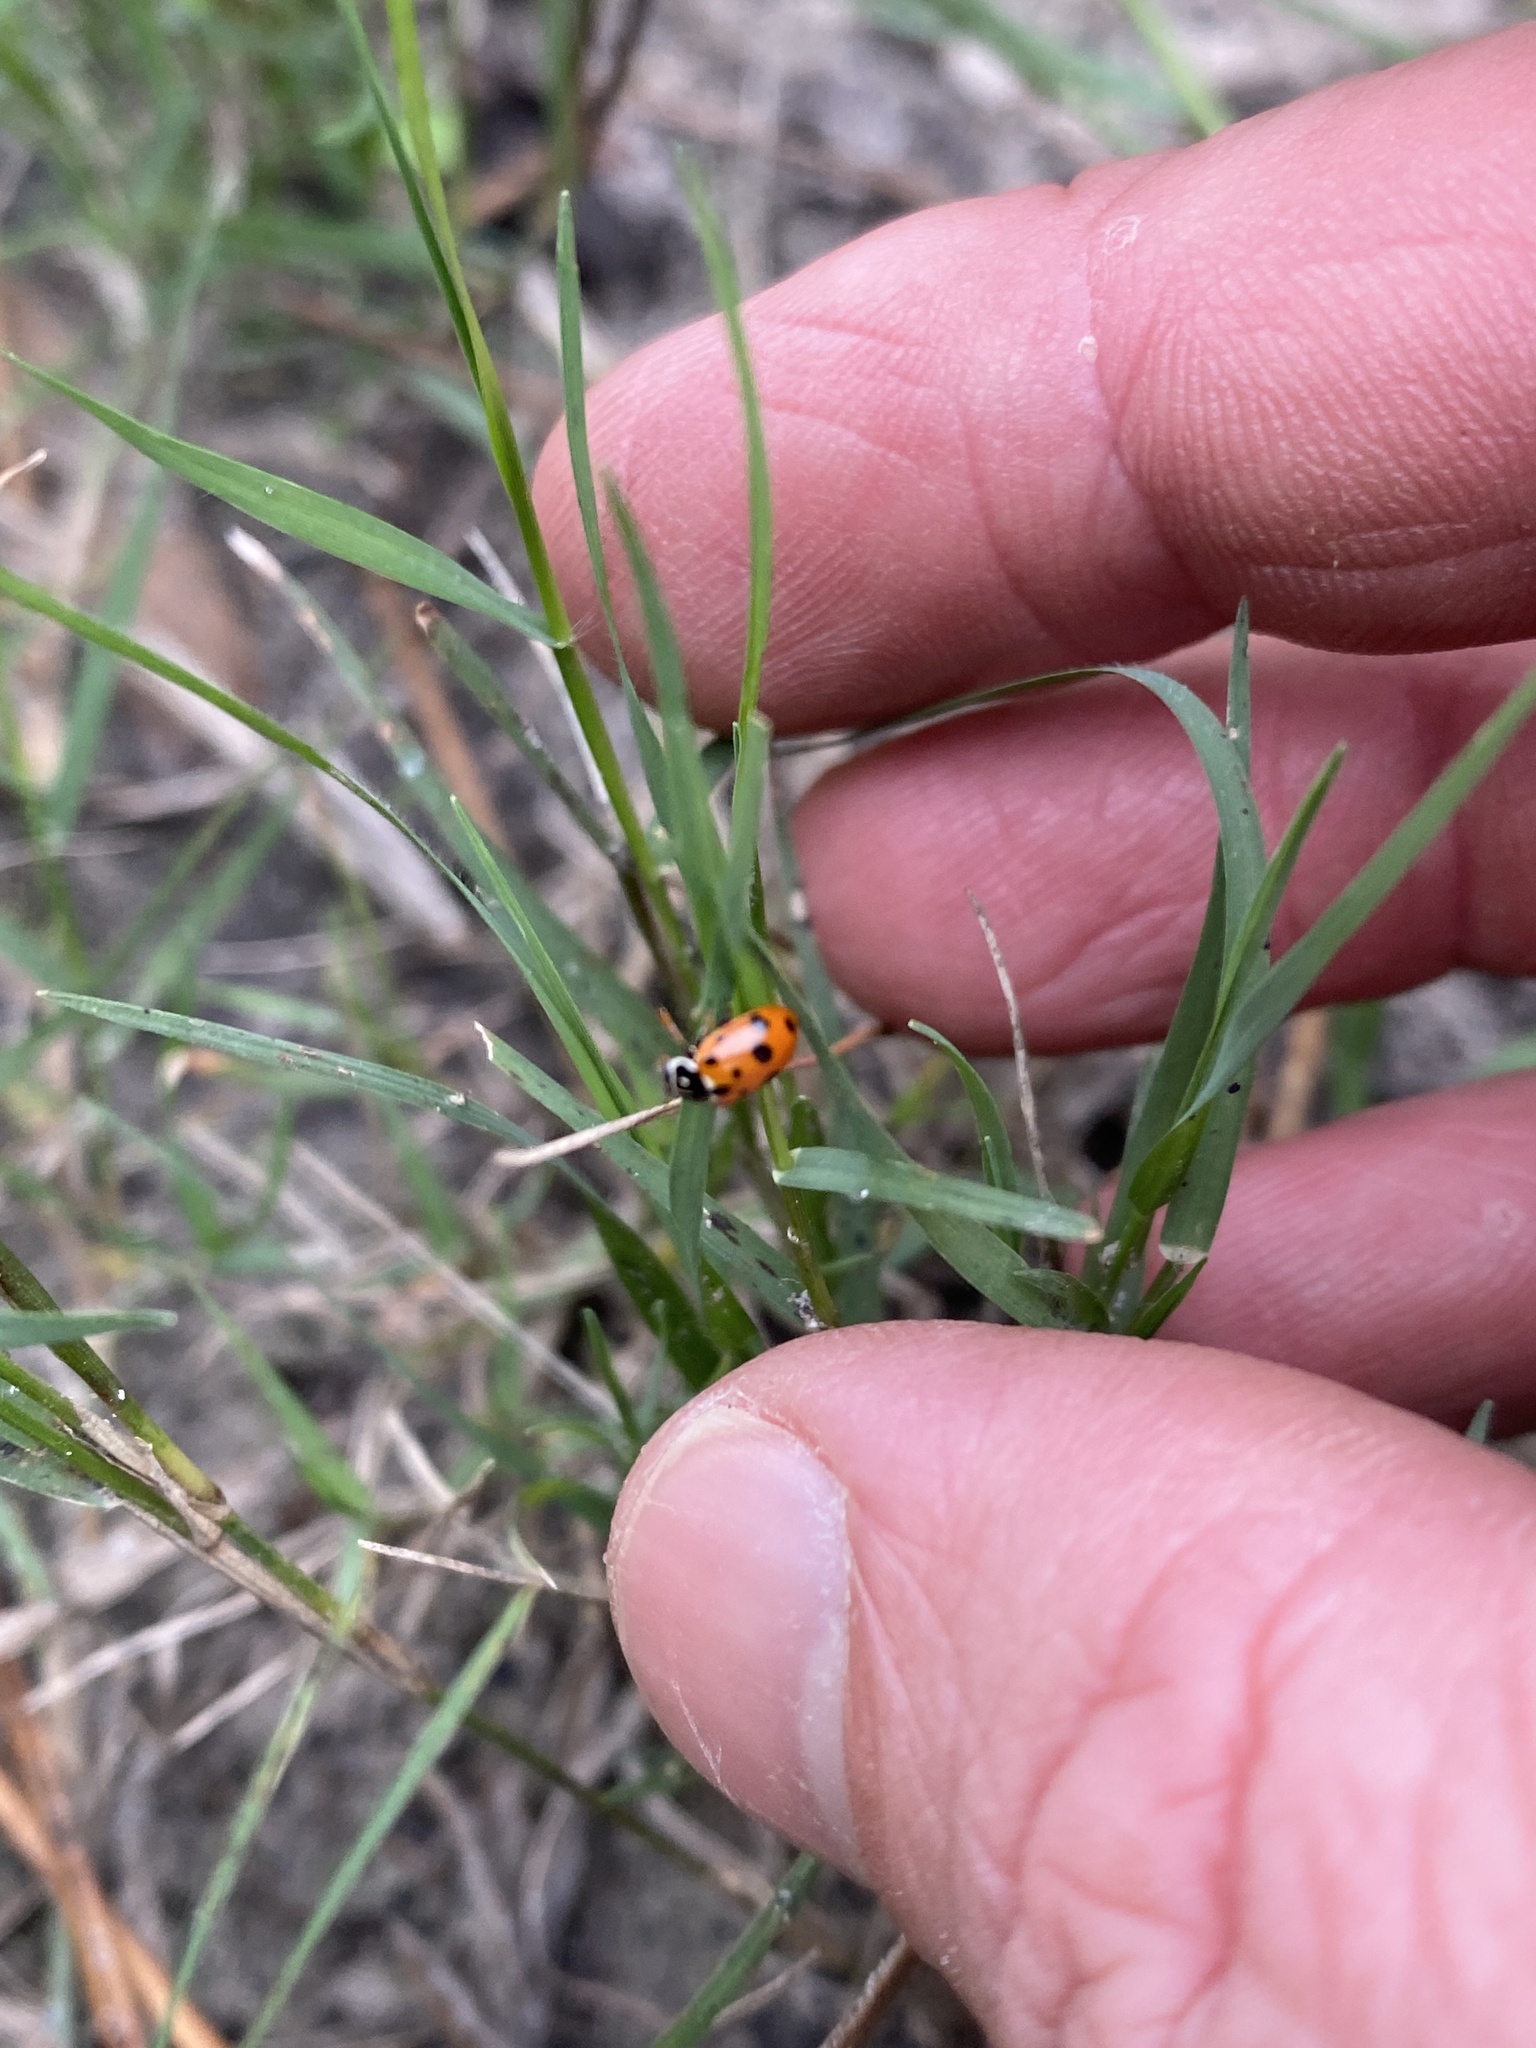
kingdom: Animalia
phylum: Arthropoda
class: Insecta
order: Coleoptera
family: Coccinellidae
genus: Hippodamia
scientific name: Hippodamia variegata
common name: Ladybird beetle
